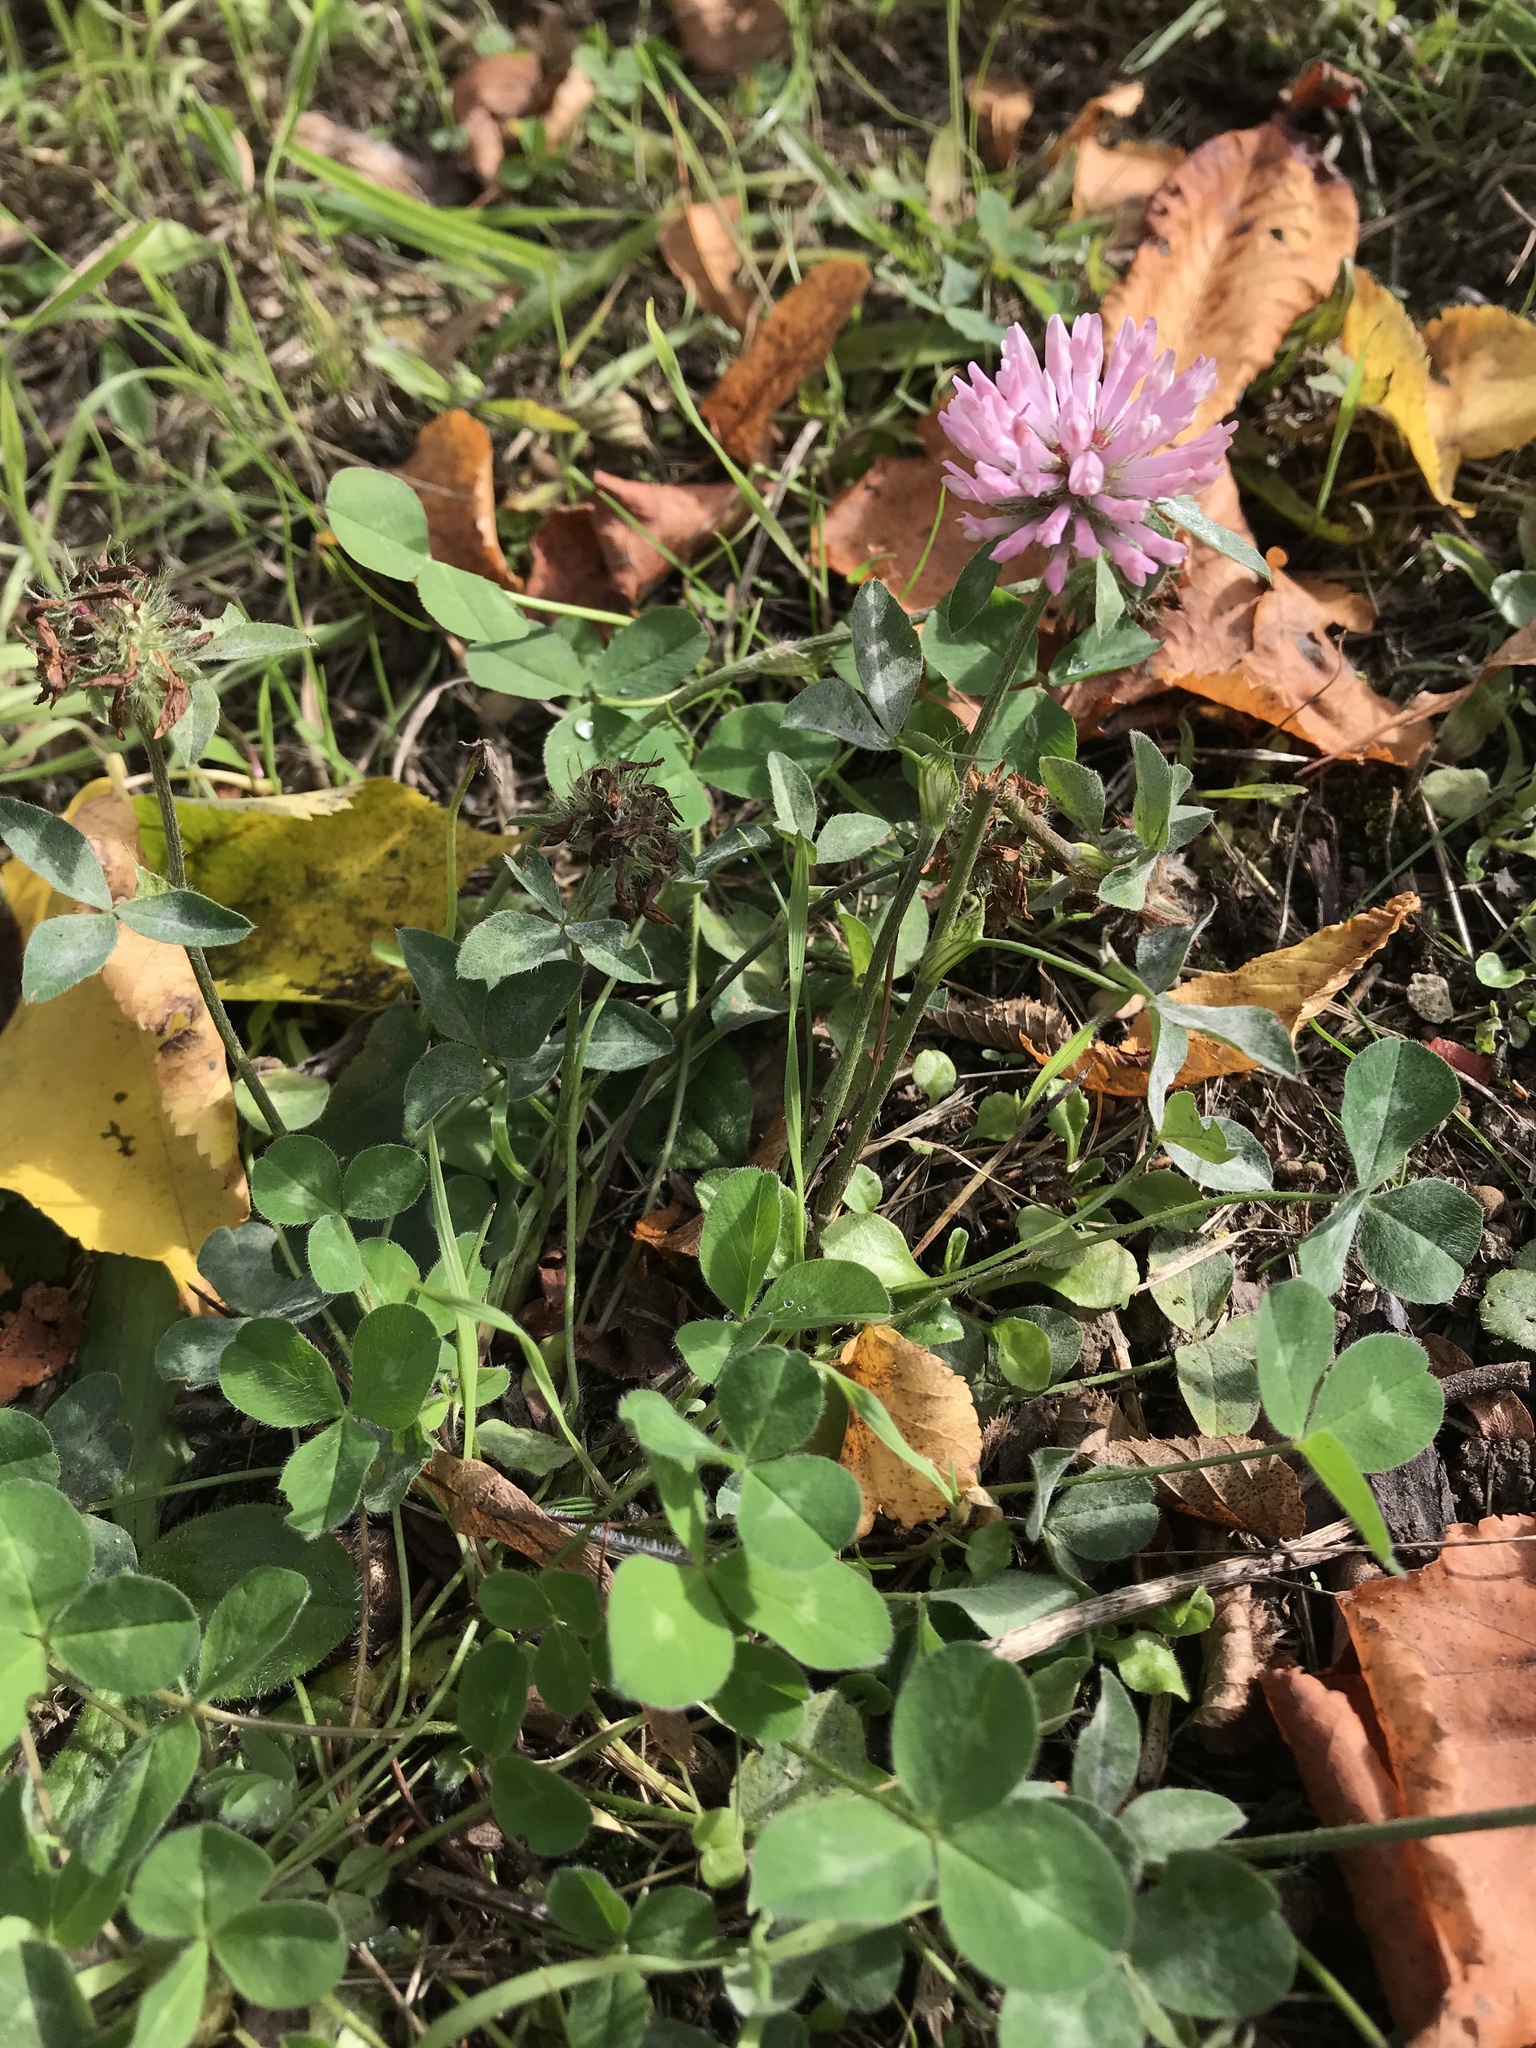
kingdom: Plantae
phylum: Tracheophyta
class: Magnoliopsida
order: Fabales
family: Fabaceae
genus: Trifolium
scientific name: Trifolium pratense
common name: Red clover
